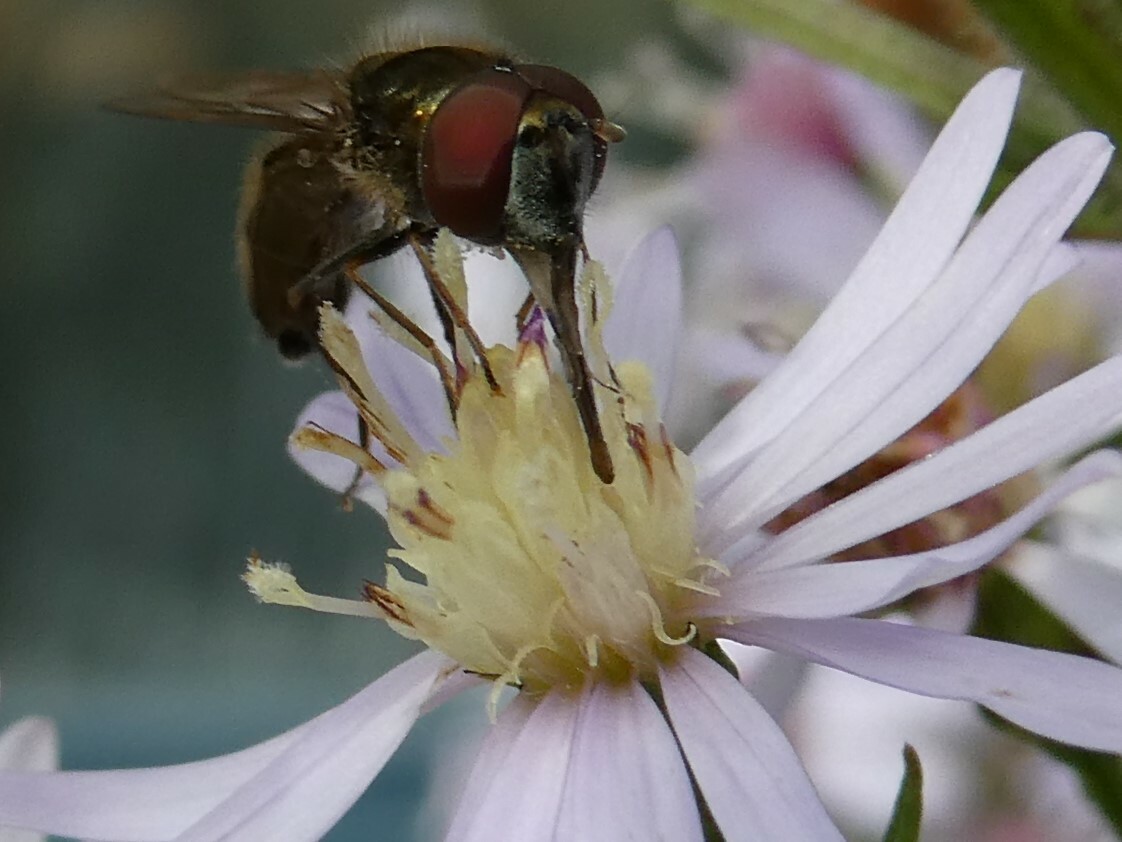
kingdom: Animalia
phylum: Arthropoda
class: Insecta
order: Diptera
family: Syrphidae
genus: Platycheirus
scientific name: Platycheirus
